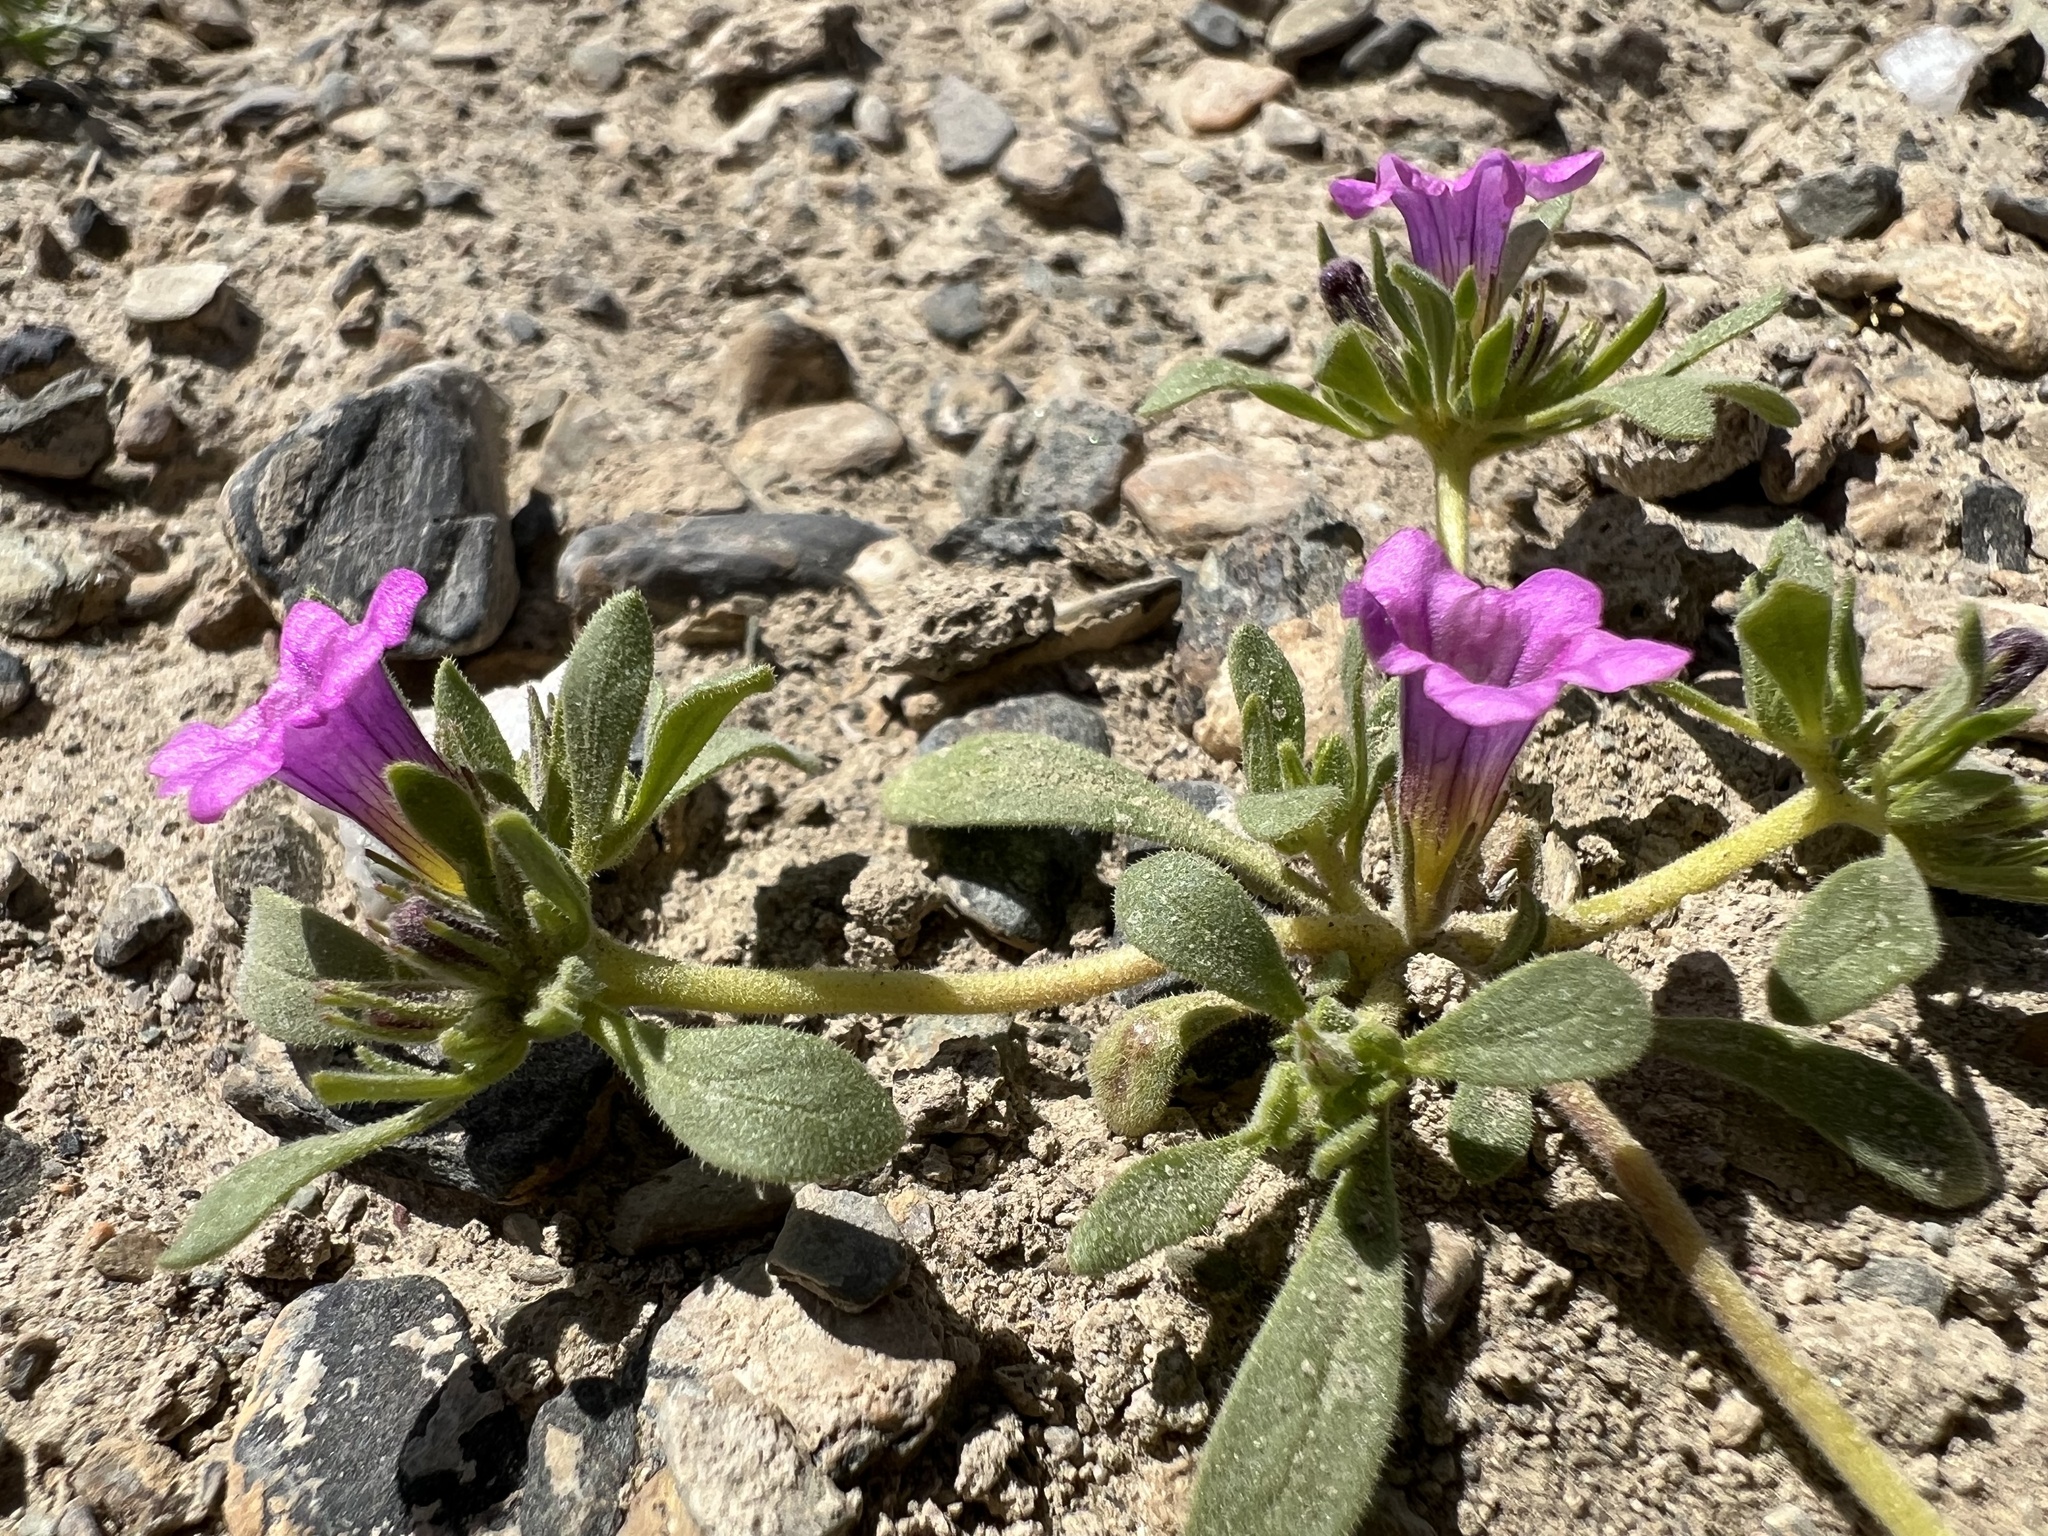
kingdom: Plantae
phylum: Tracheophyta
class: Magnoliopsida
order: Boraginales
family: Namaceae
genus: Nama
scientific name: Nama demissa
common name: Leafy nama
